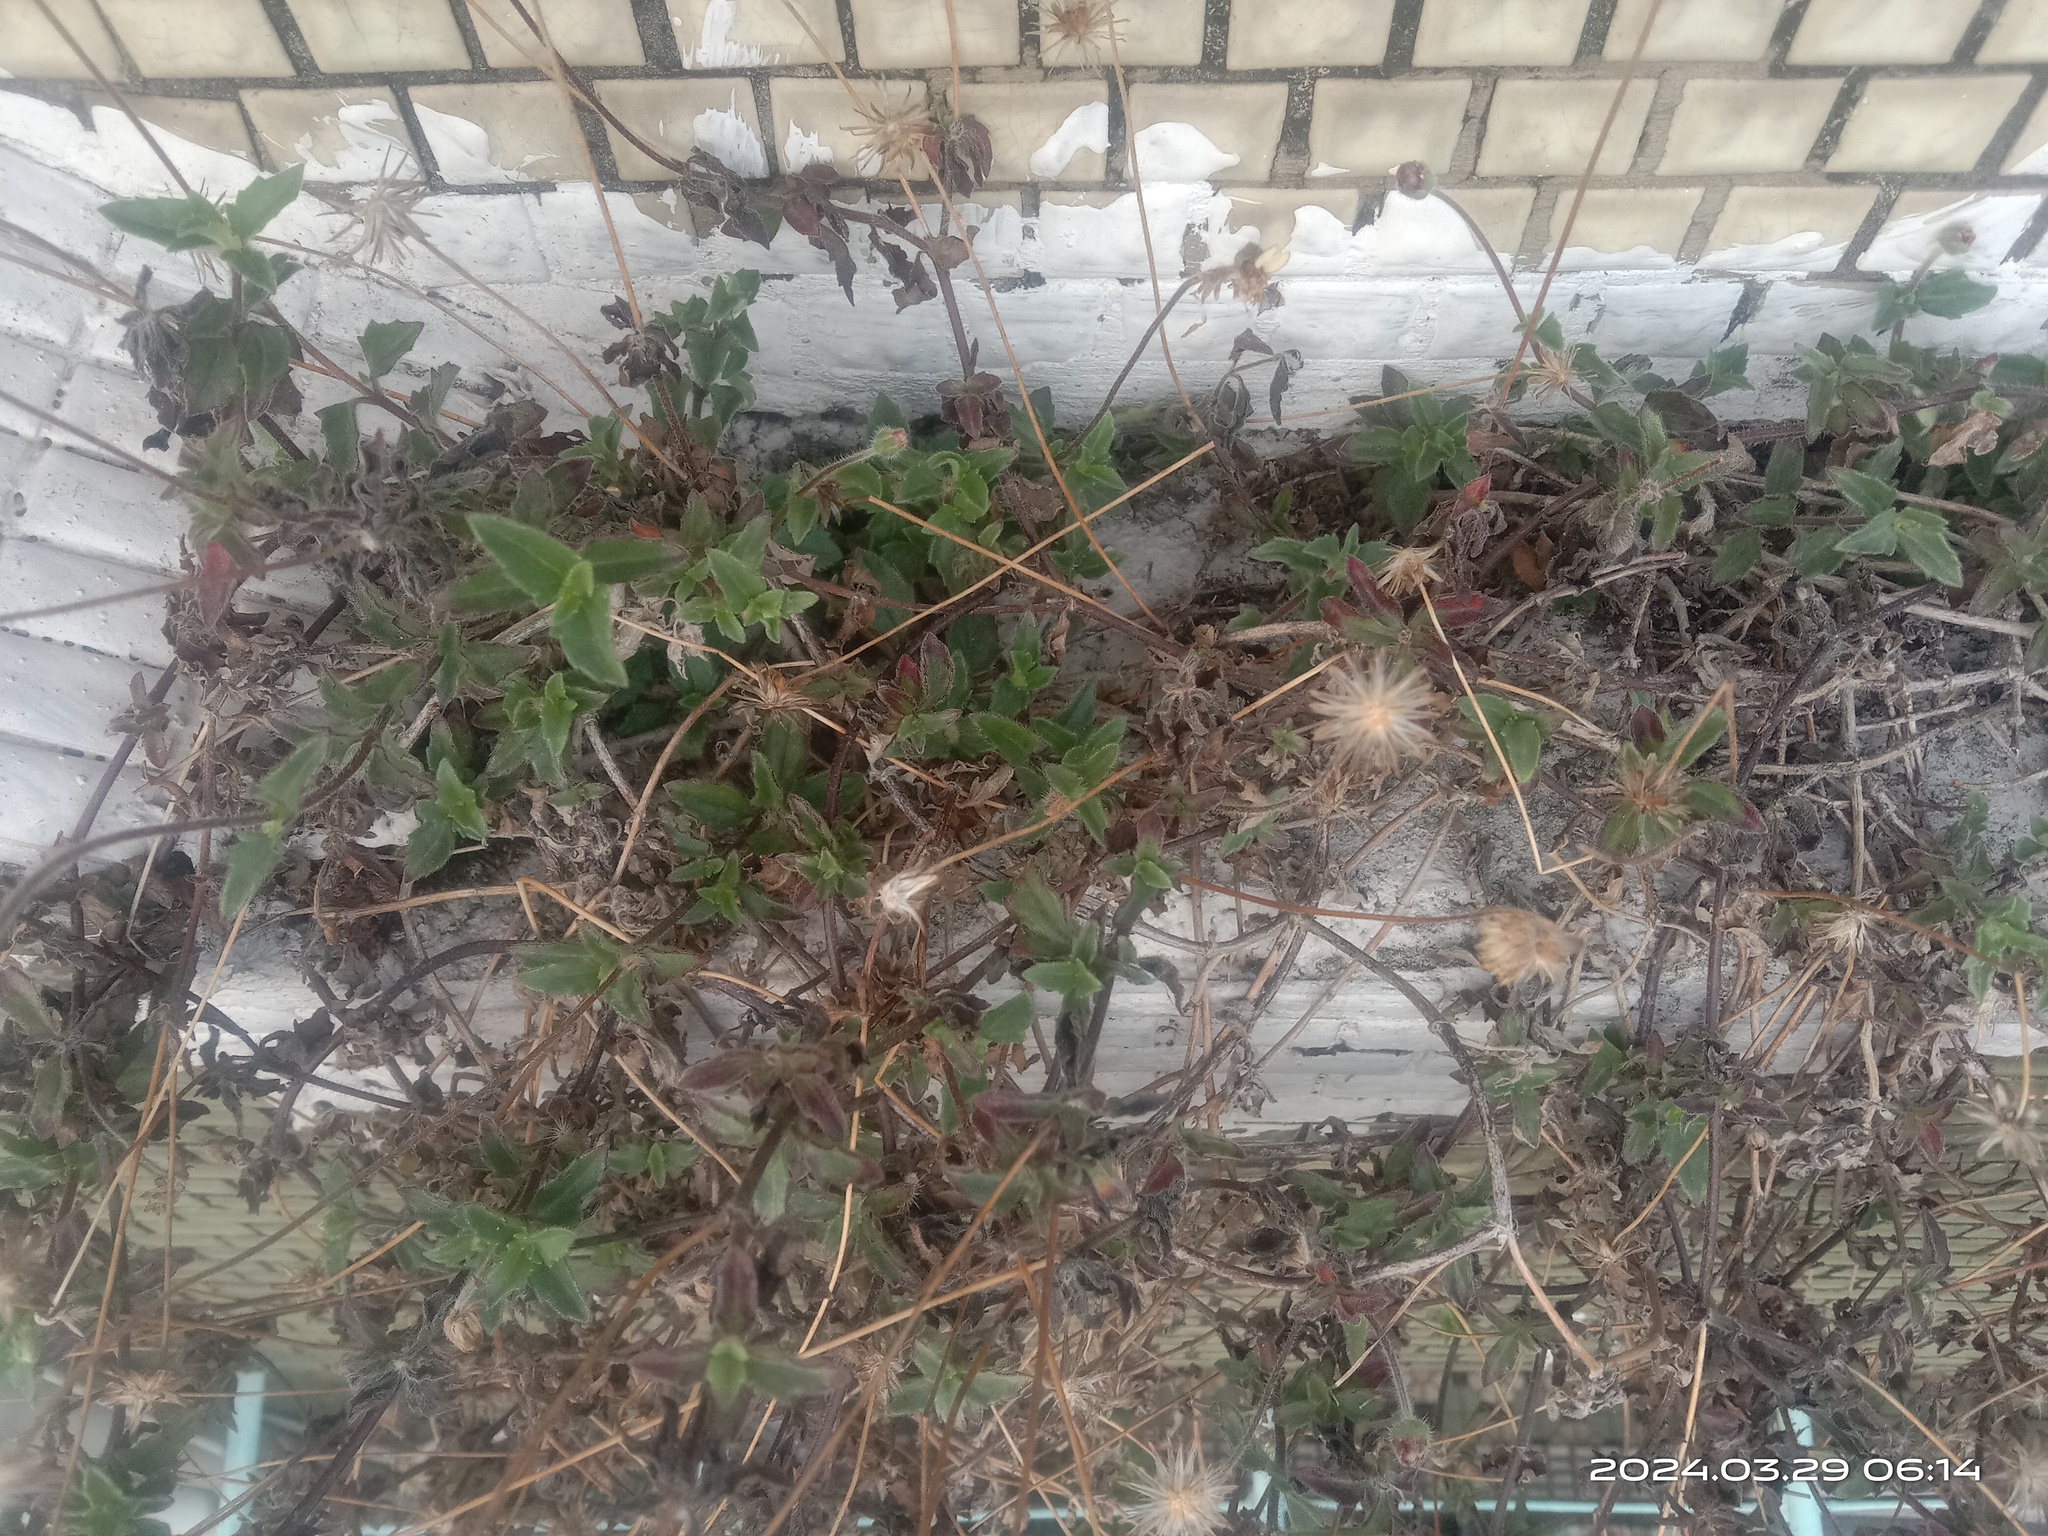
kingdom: Plantae
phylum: Tracheophyta
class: Magnoliopsida
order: Asterales
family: Asteraceae
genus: Tridax
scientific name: Tridax procumbens
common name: Coatbuttons
